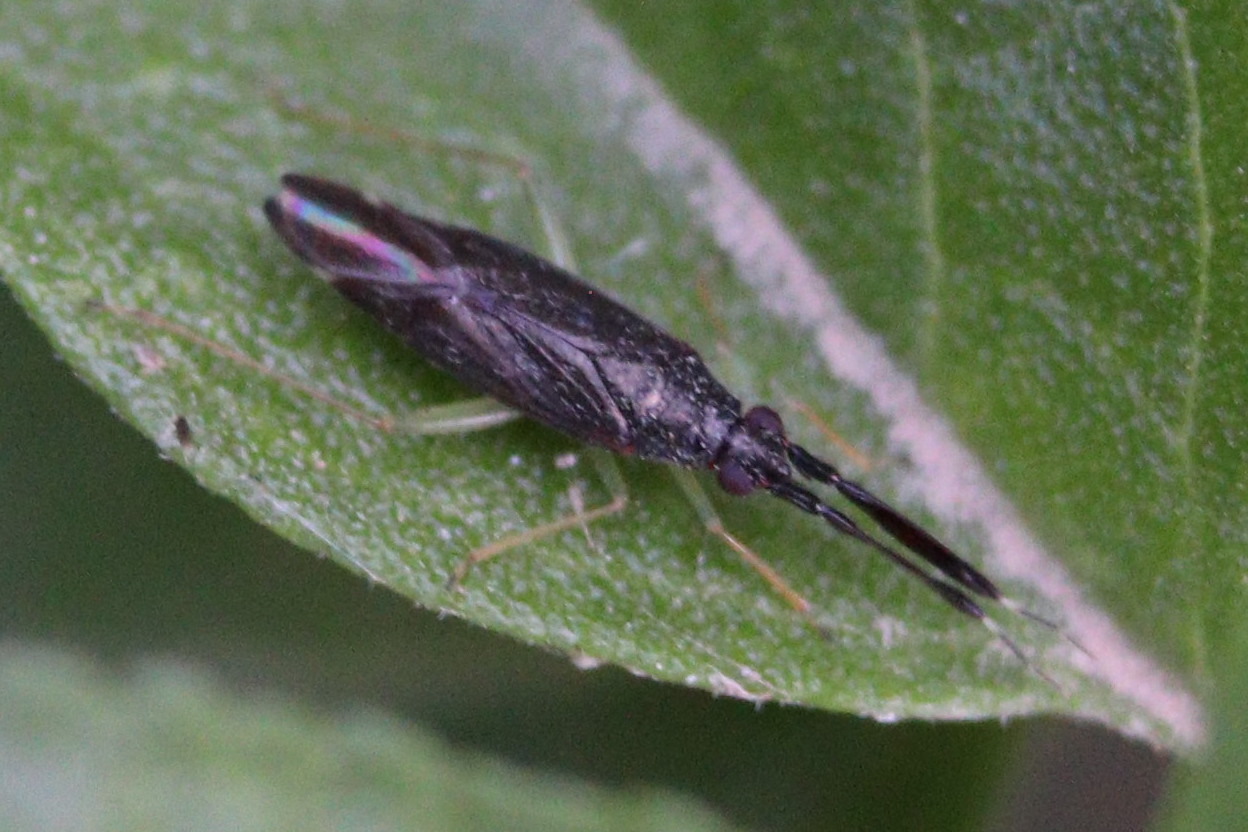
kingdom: Animalia
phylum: Arthropoda
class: Insecta
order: Hemiptera
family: Miridae
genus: Heterotoma
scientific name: Heterotoma planicornis
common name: Plant bug
